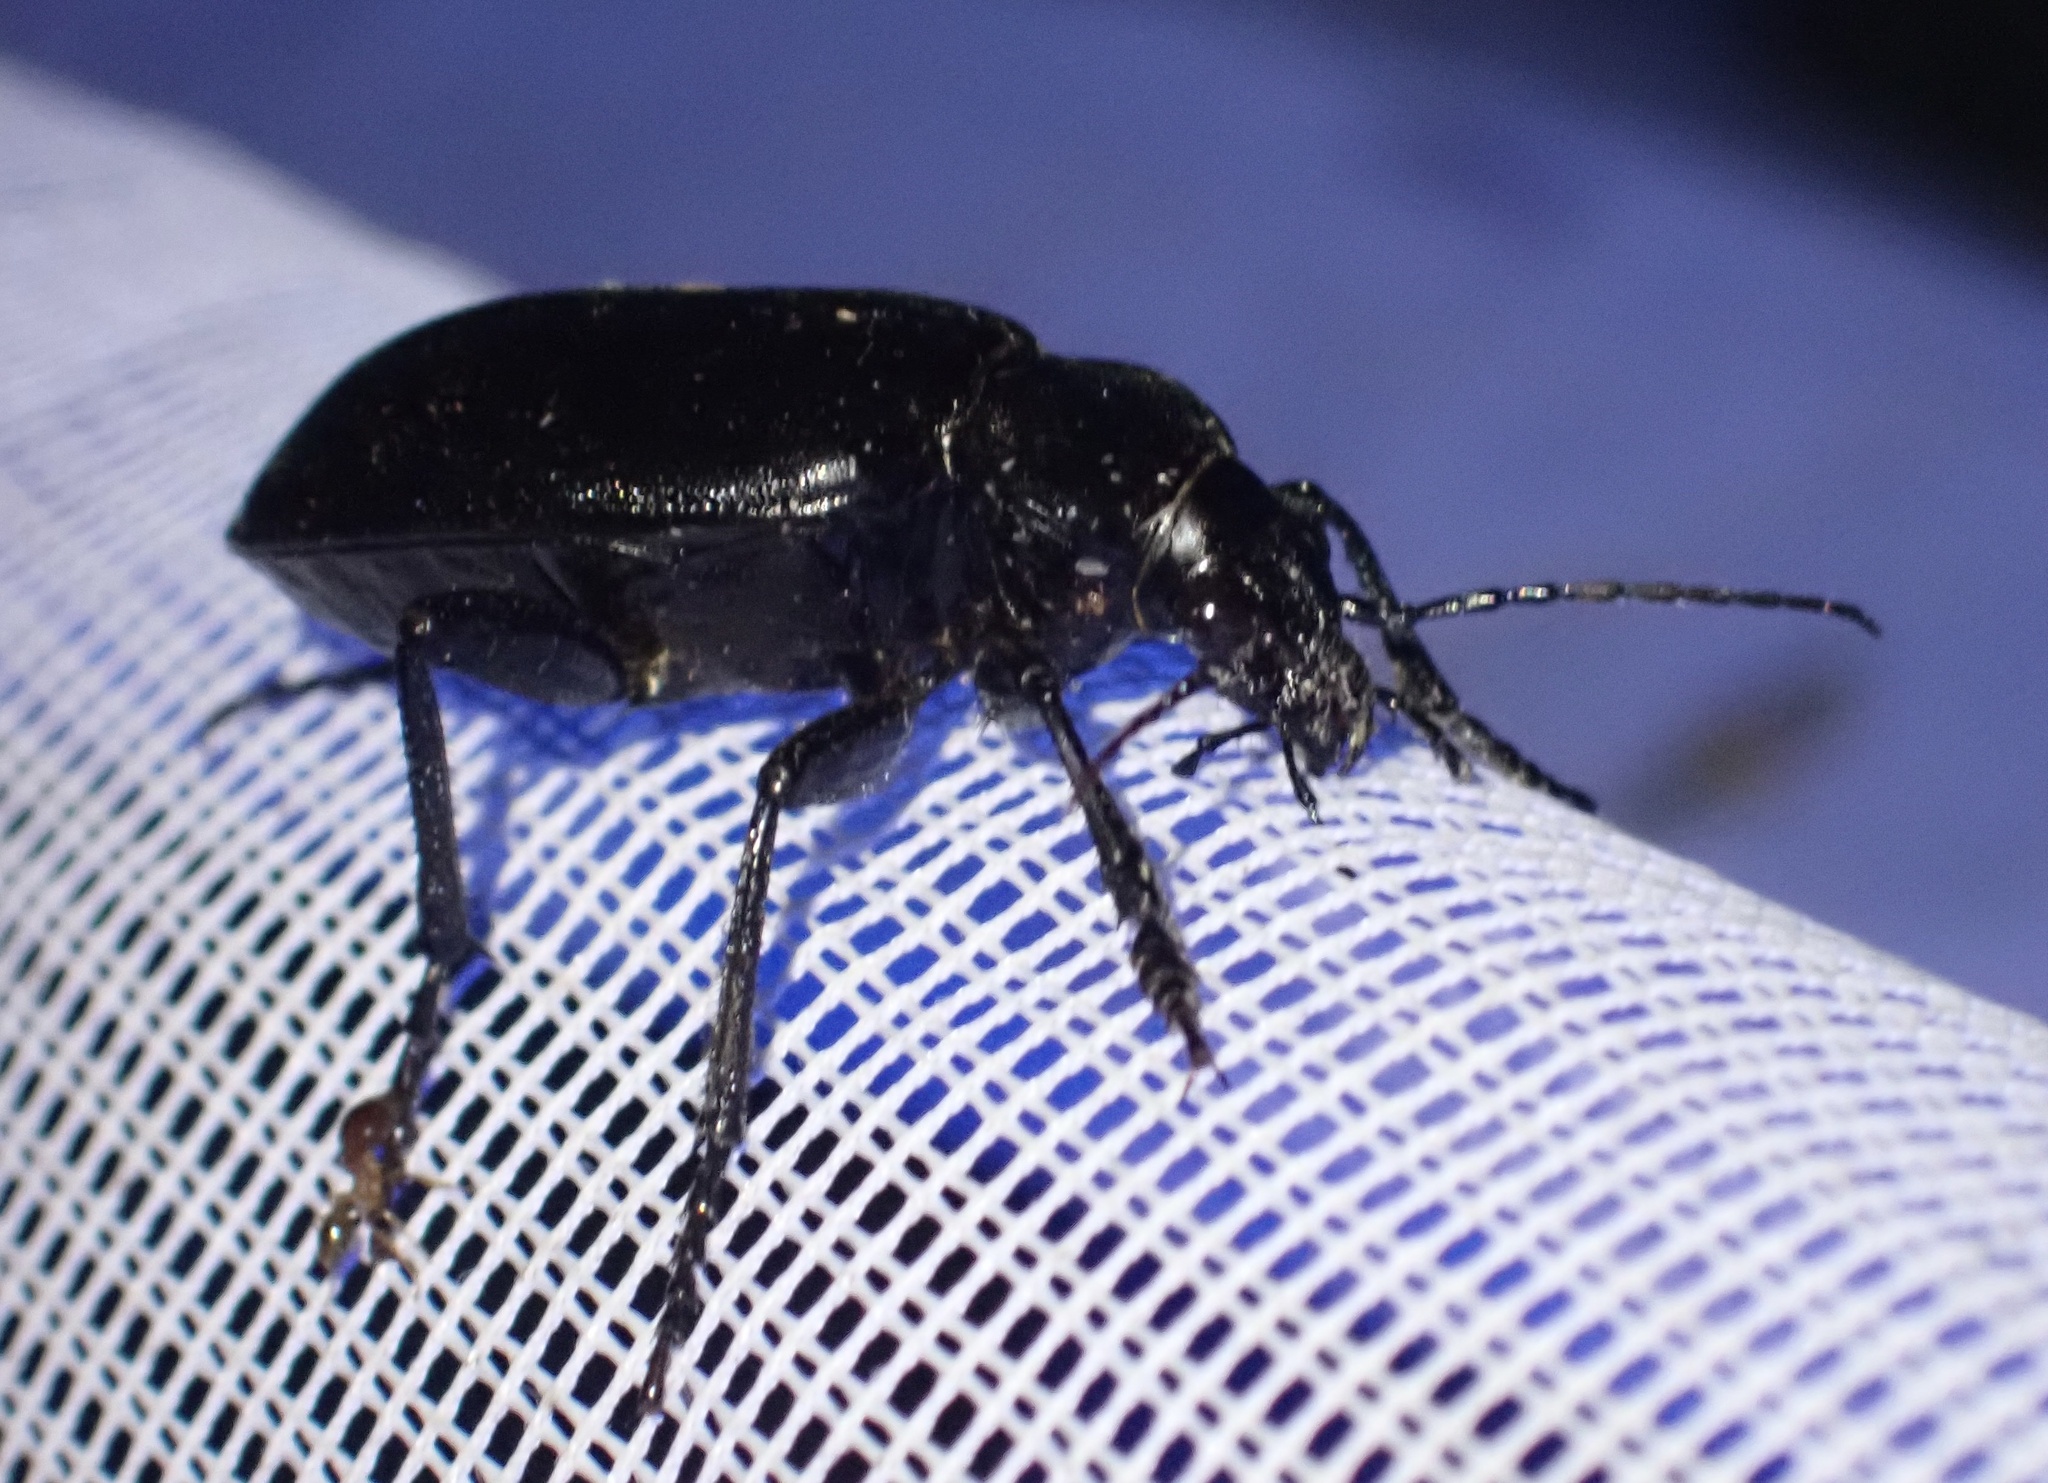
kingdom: Animalia
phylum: Arthropoda
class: Insecta
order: Coleoptera
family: Carabidae
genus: Calosoma
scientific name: Calosoma olivieri
